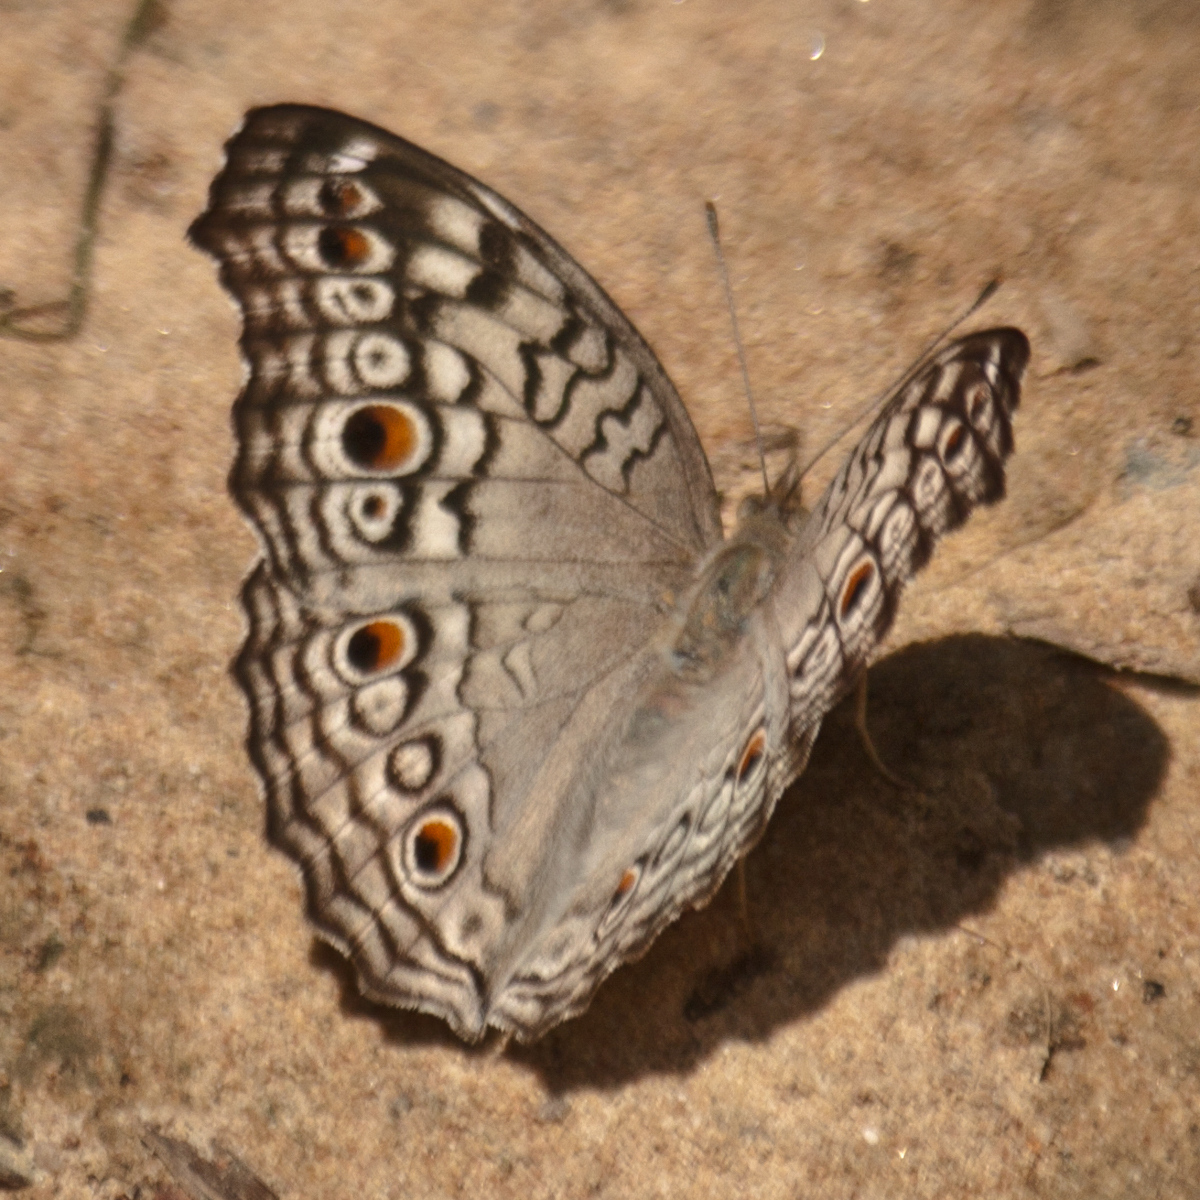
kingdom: Animalia
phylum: Arthropoda
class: Insecta
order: Lepidoptera
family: Nymphalidae
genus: Junonia
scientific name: Junonia atlites
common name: Grey pansy
